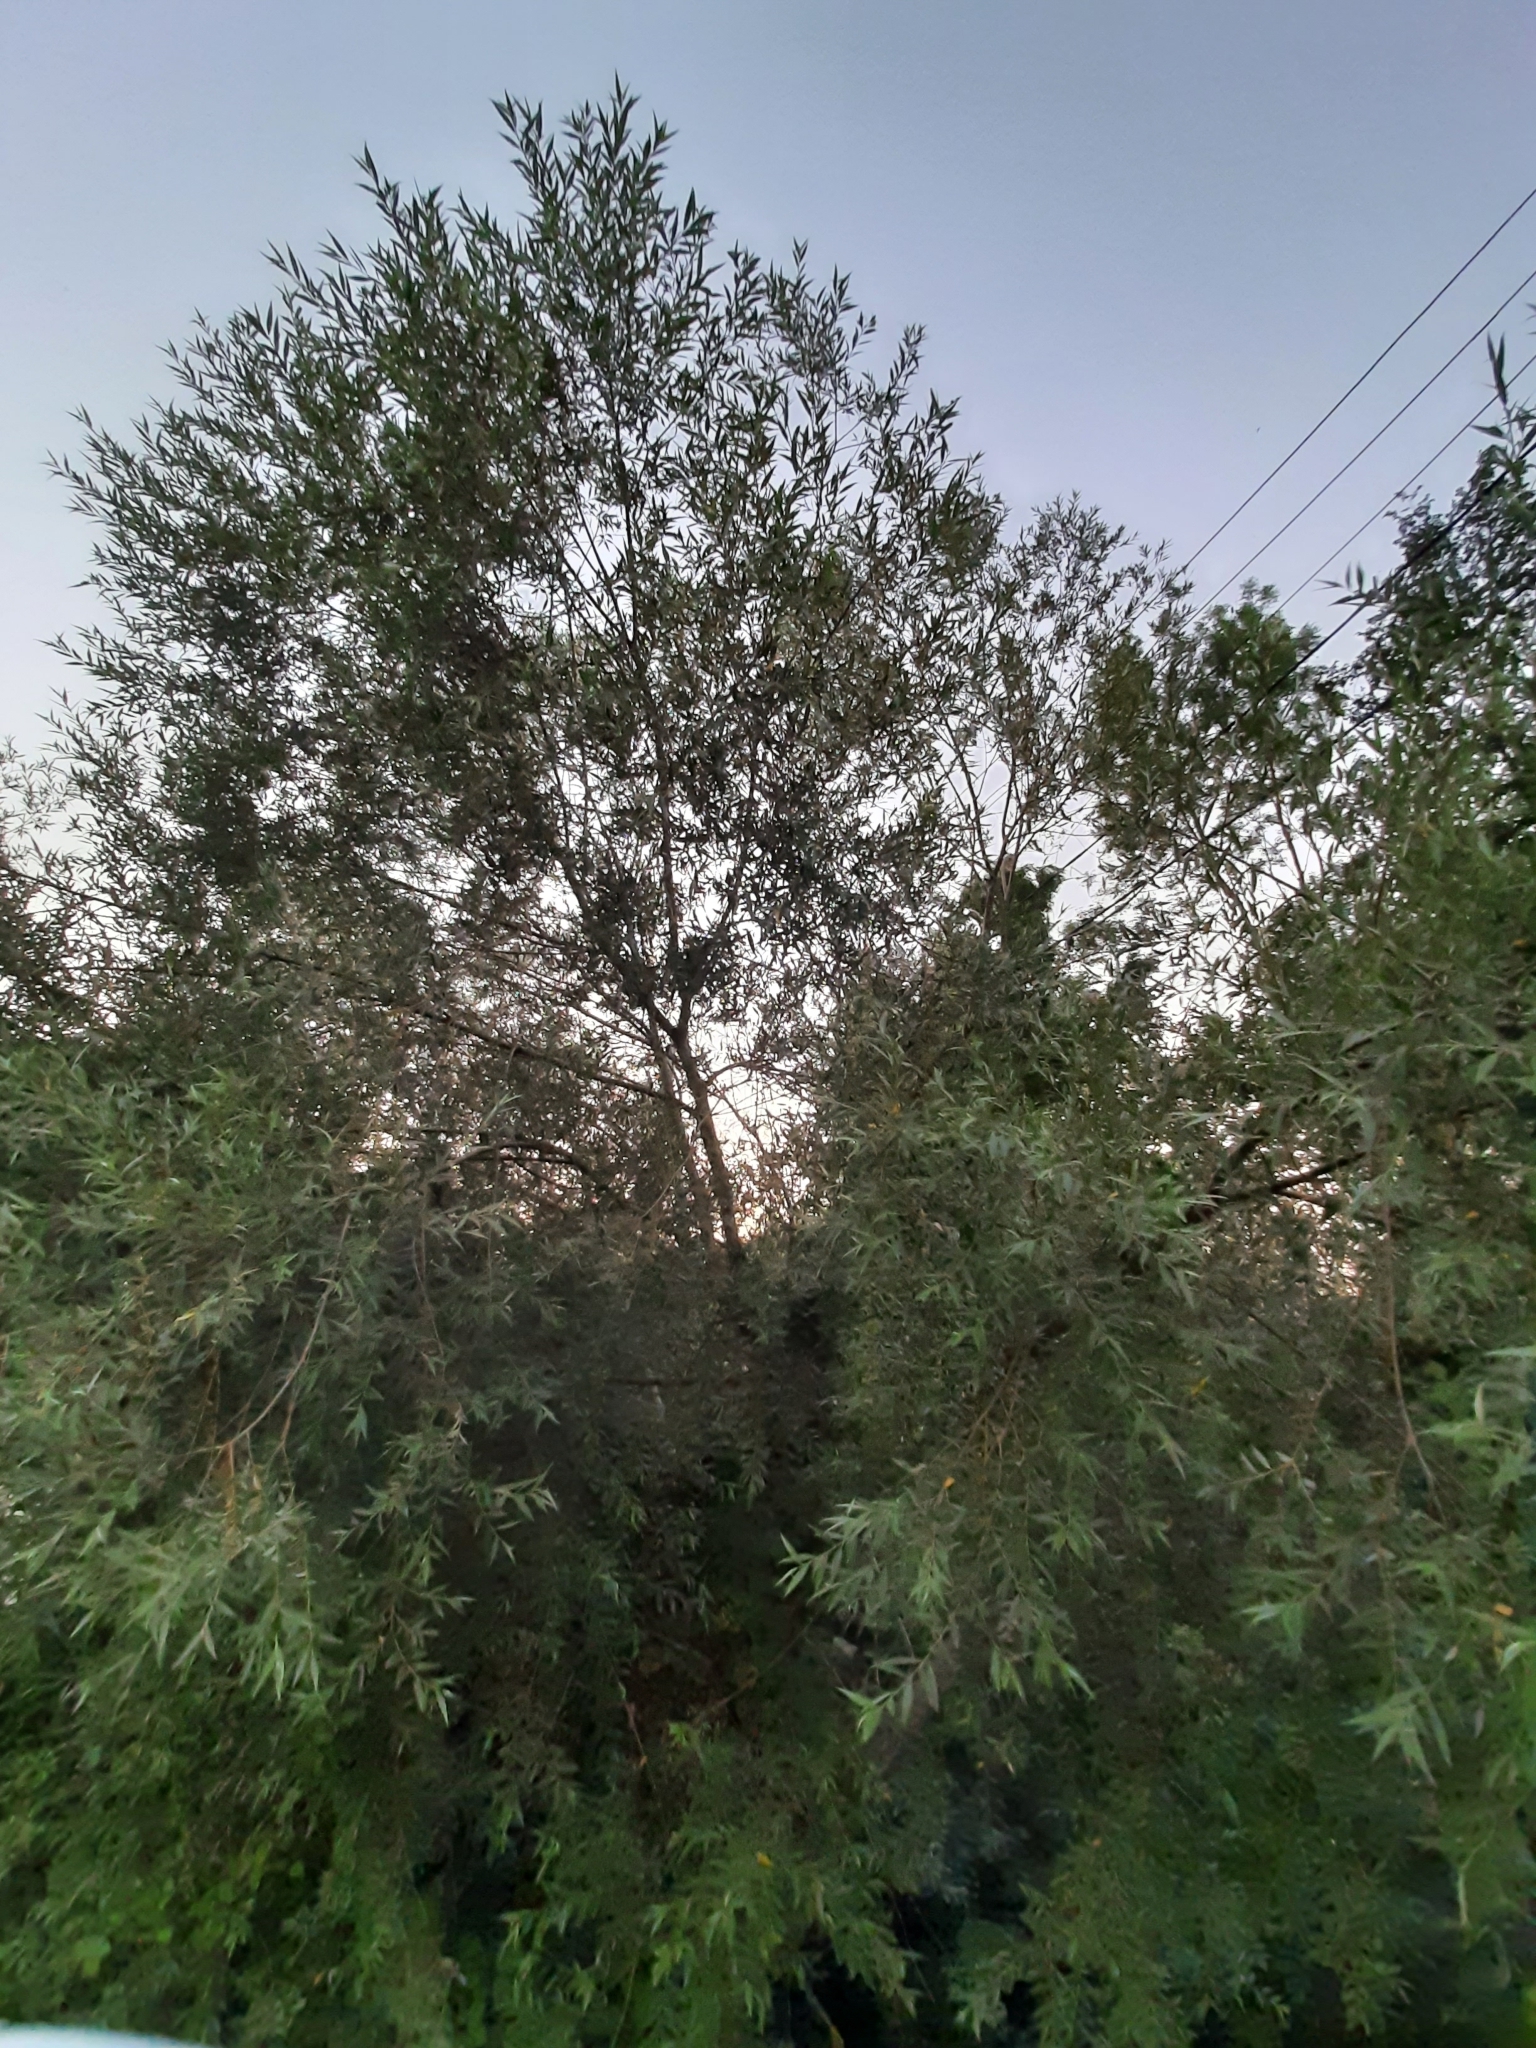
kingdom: Plantae
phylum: Tracheophyta
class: Magnoliopsida
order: Malpighiales
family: Salicaceae
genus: Salix
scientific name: Salix alba
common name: White willow
